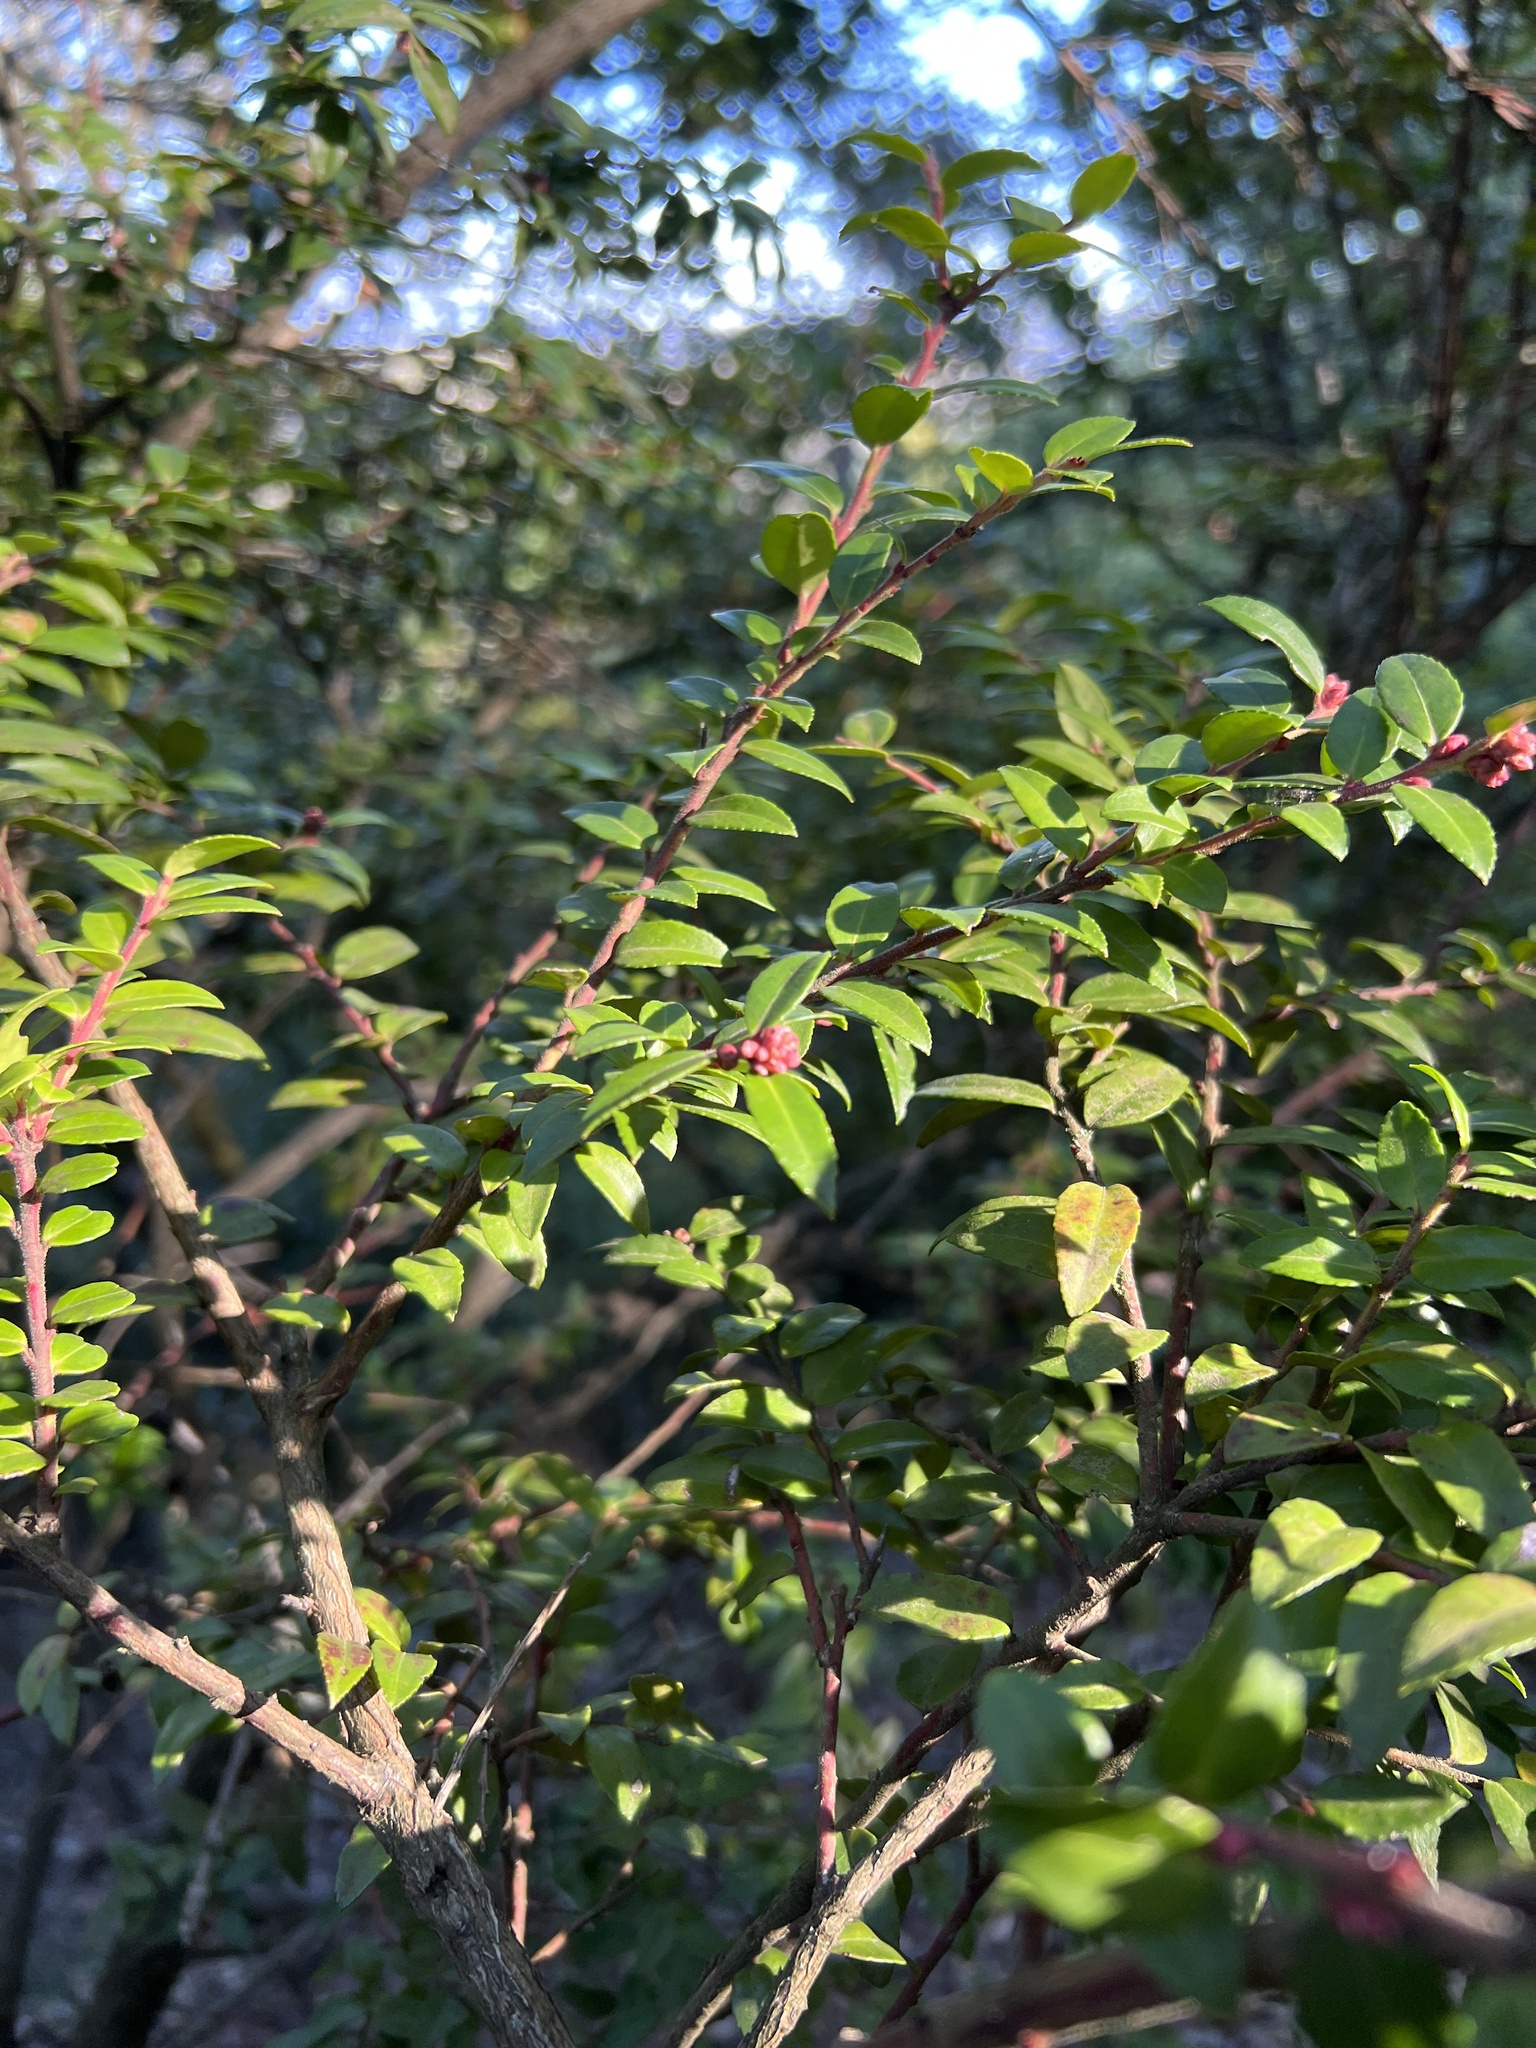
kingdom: Plantae
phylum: Tracheophyta
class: Magnoliopsida
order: Ericales
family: Ericaceae
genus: Vaccinium
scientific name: Vaccinium ovatum
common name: California-huckleberry
